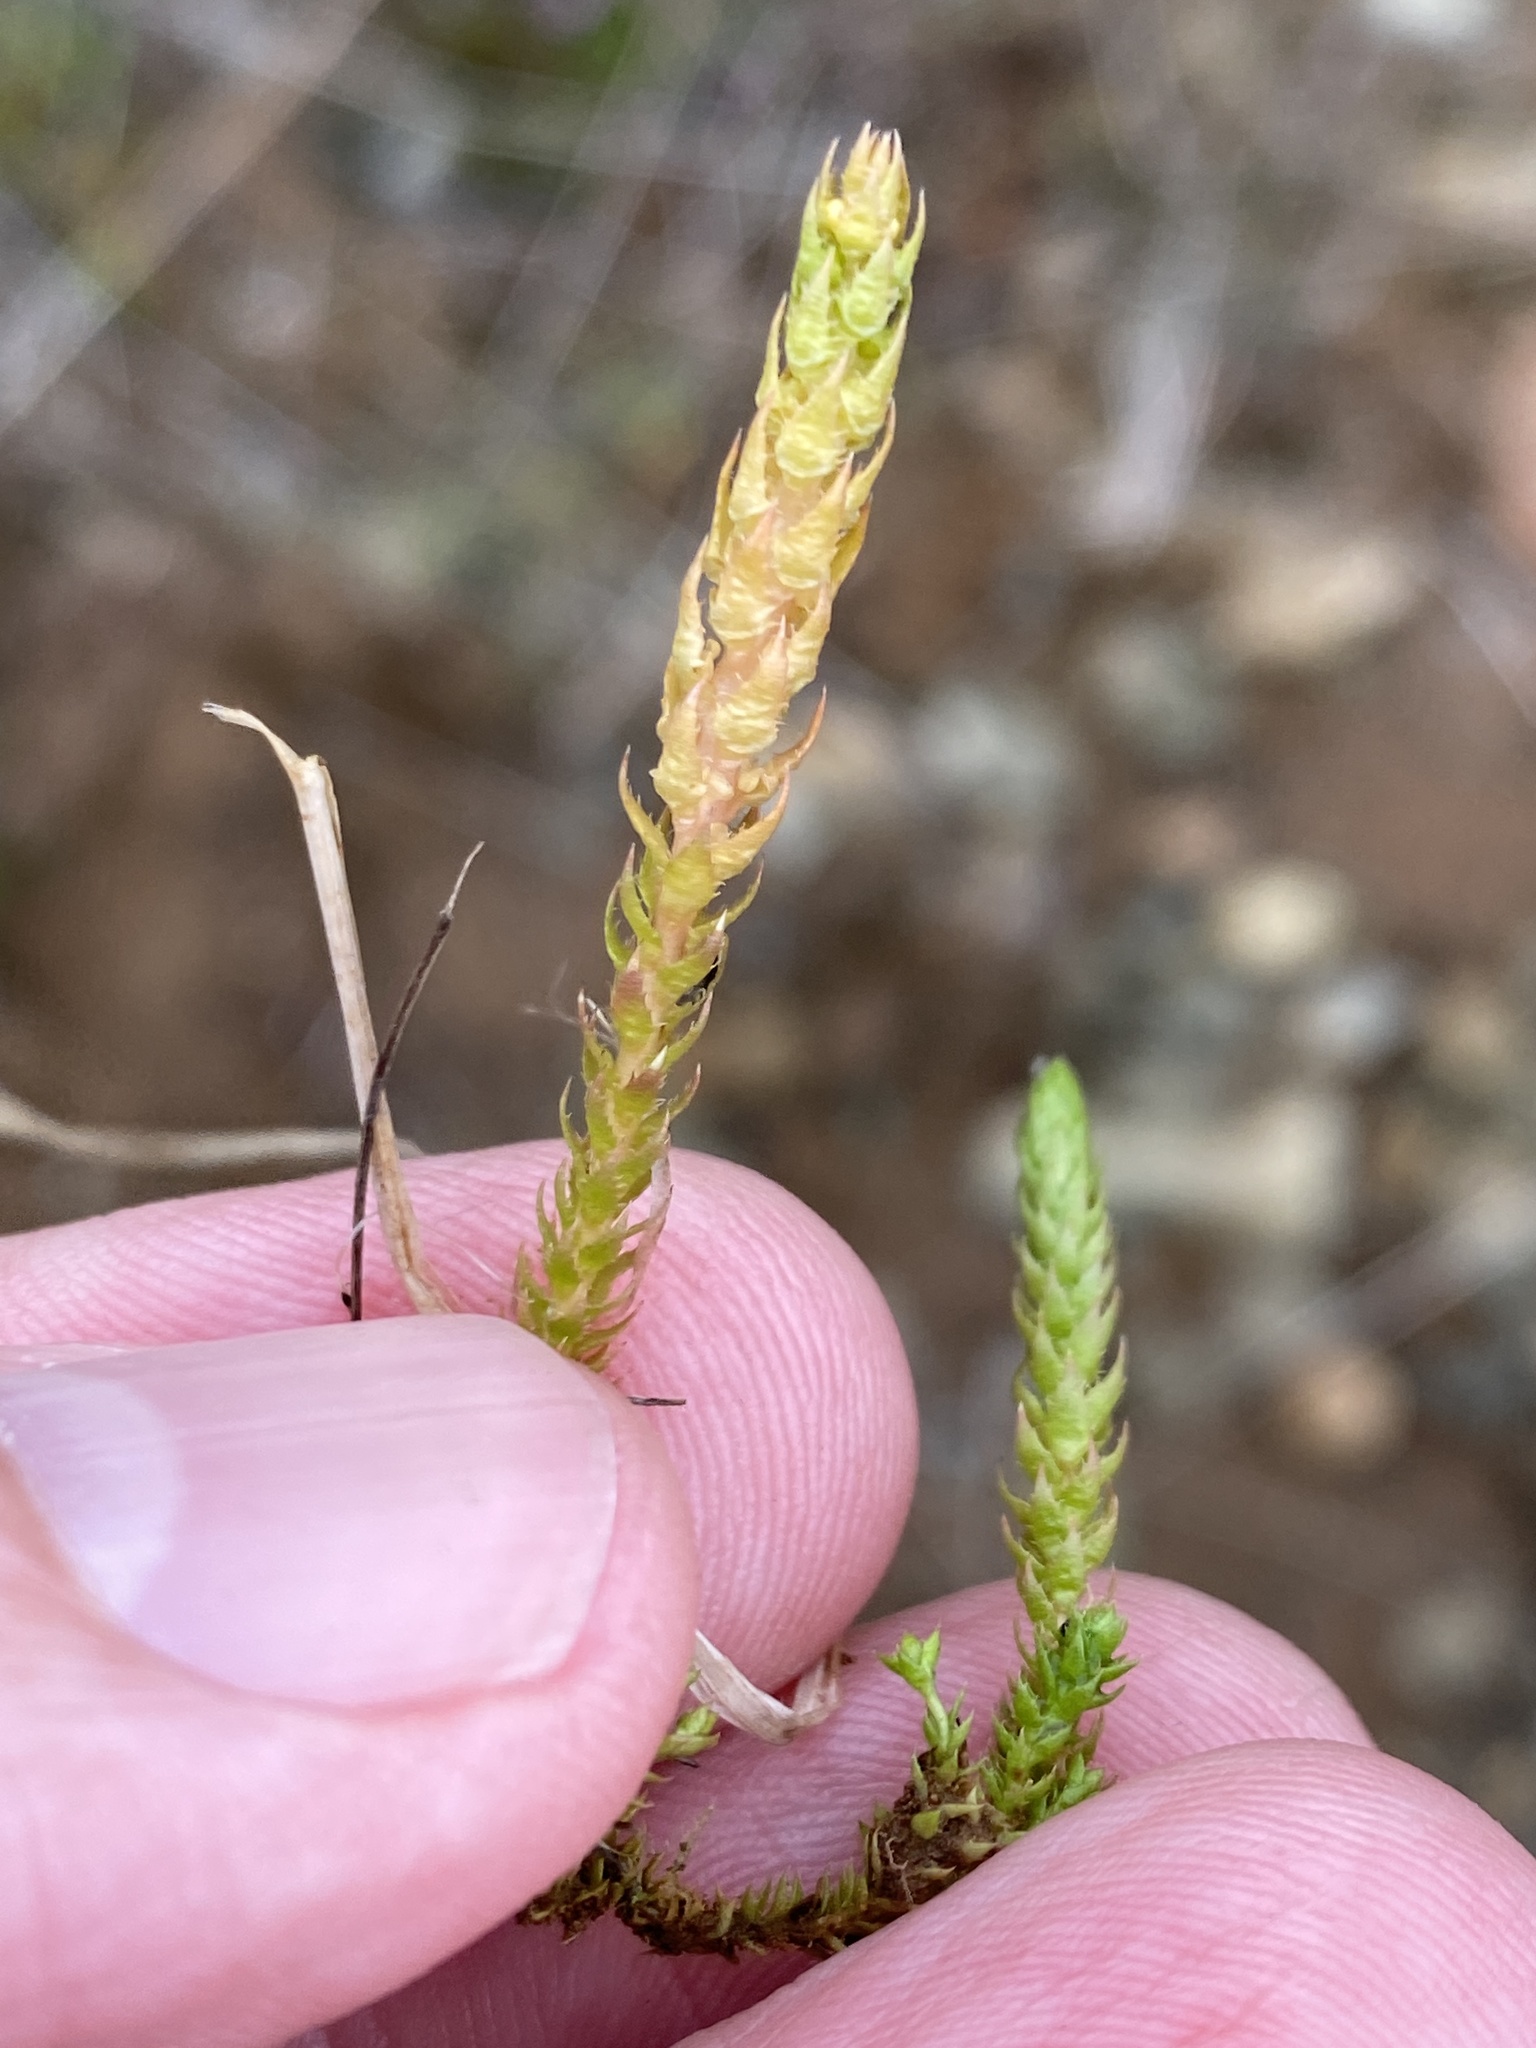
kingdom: Plantae
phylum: Tracheophyta
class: Lycopodiopsida
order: Selaginellales
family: Selaginellaceae
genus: Selaginella
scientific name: Selaginella selaginoides
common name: Prickly mountain-moss
